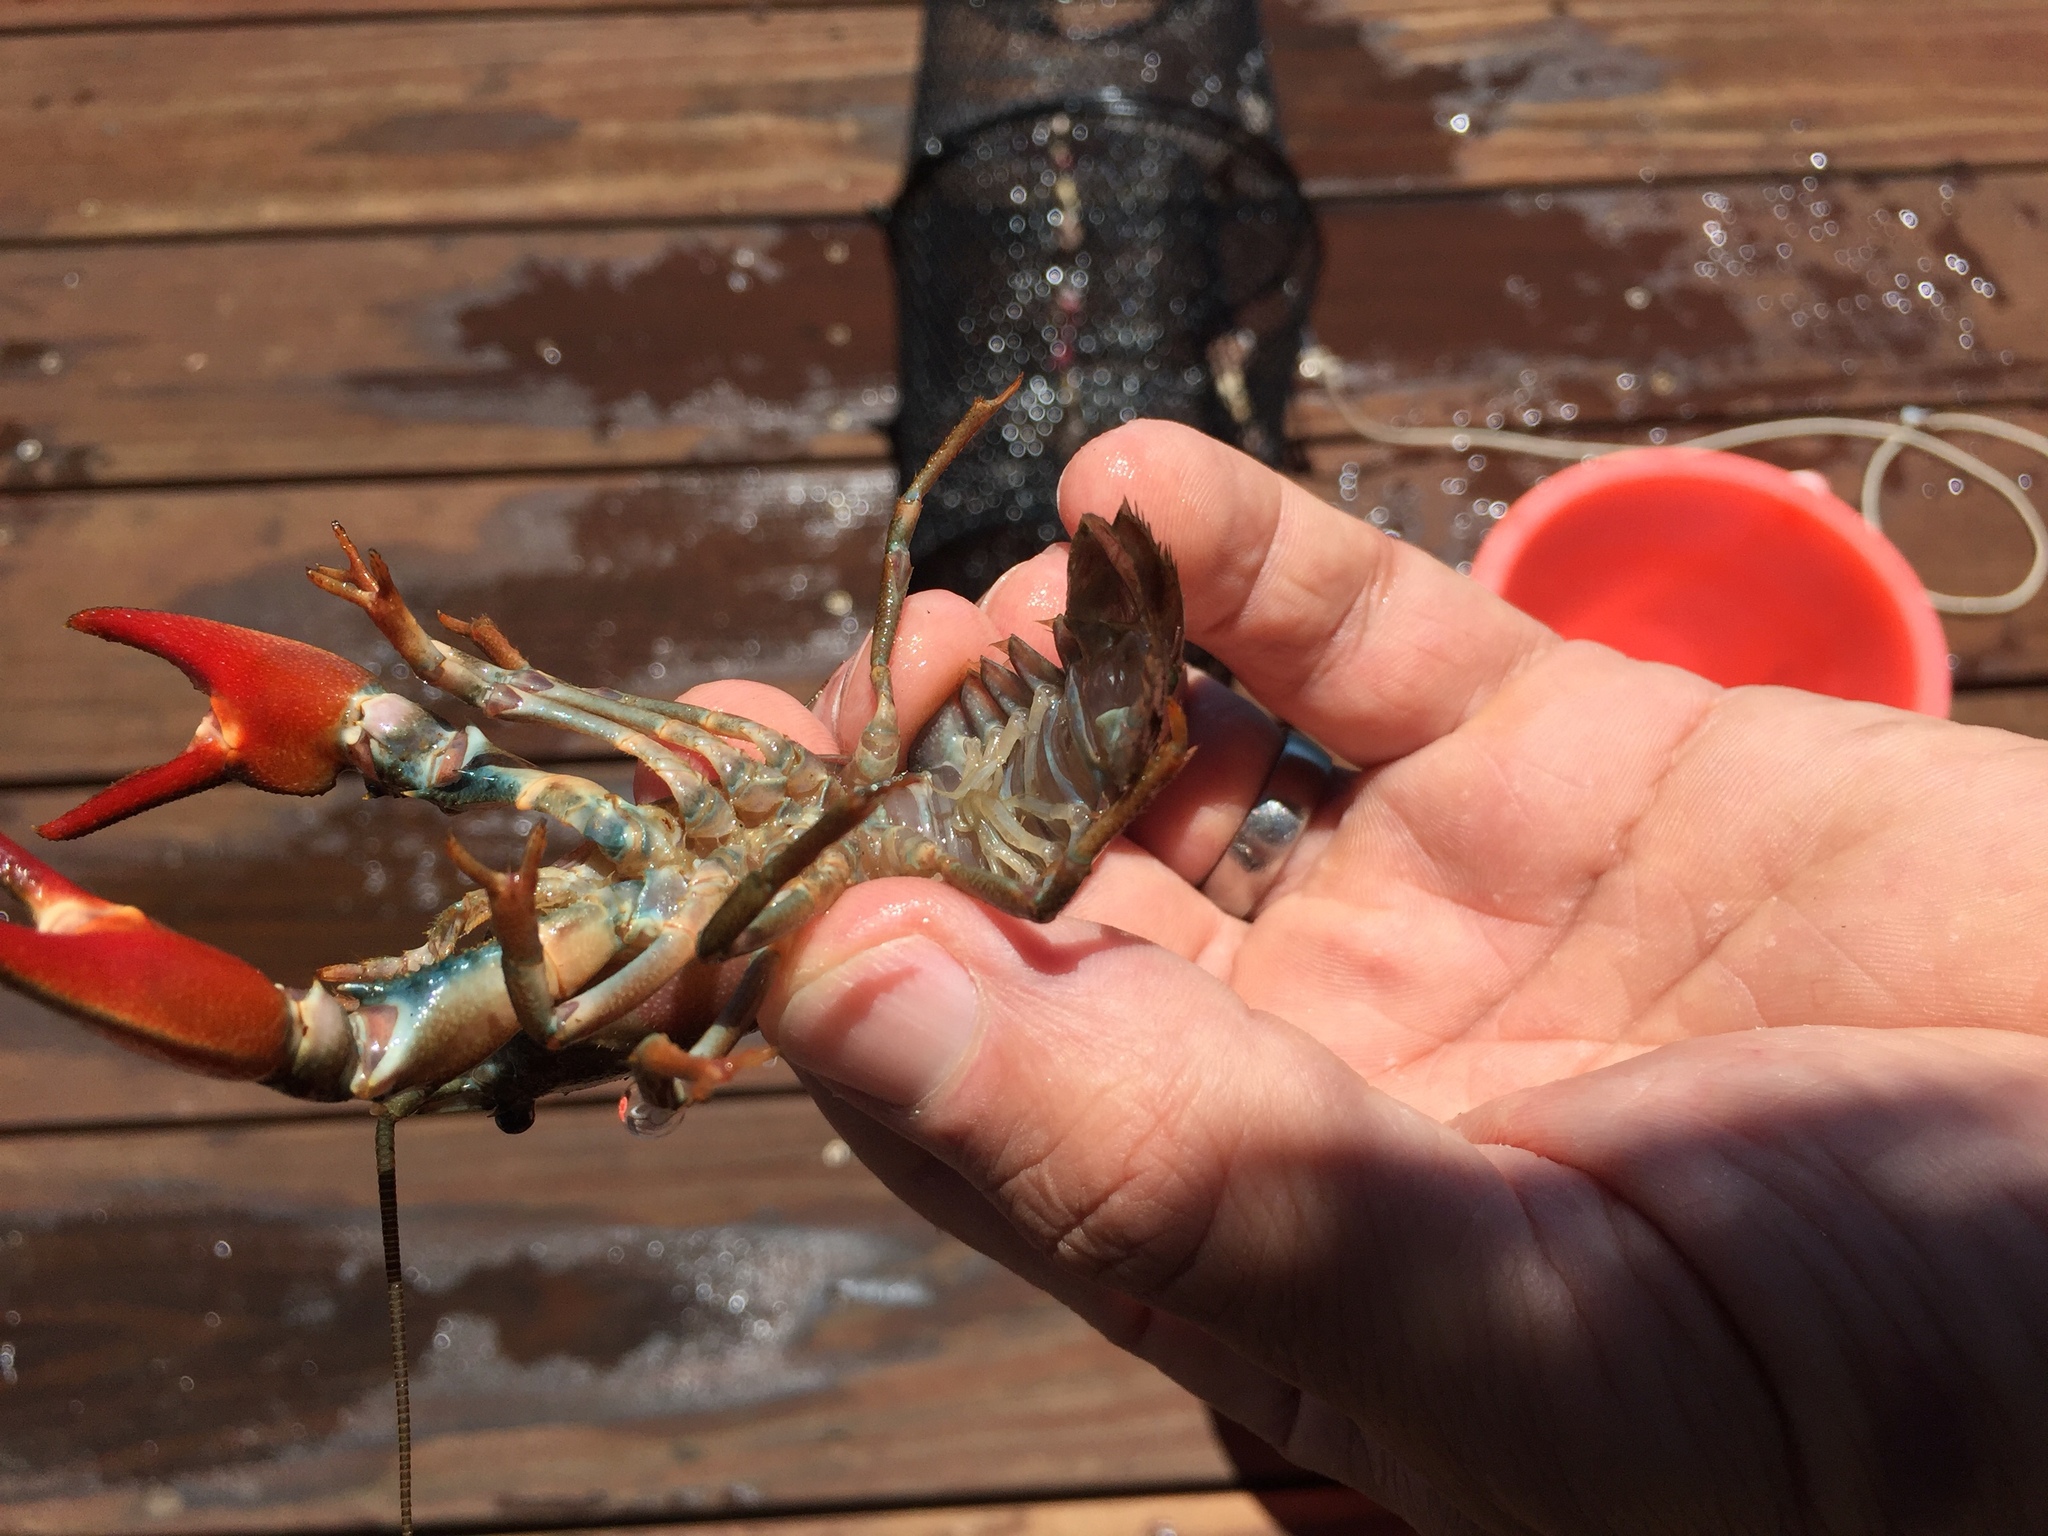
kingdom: Animalia
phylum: Arthropoda
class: Malacostraca
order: Decapoda
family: Astacidae
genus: Pacifastacus
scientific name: Pacifastacus leniusculus
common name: Signal crayfish
